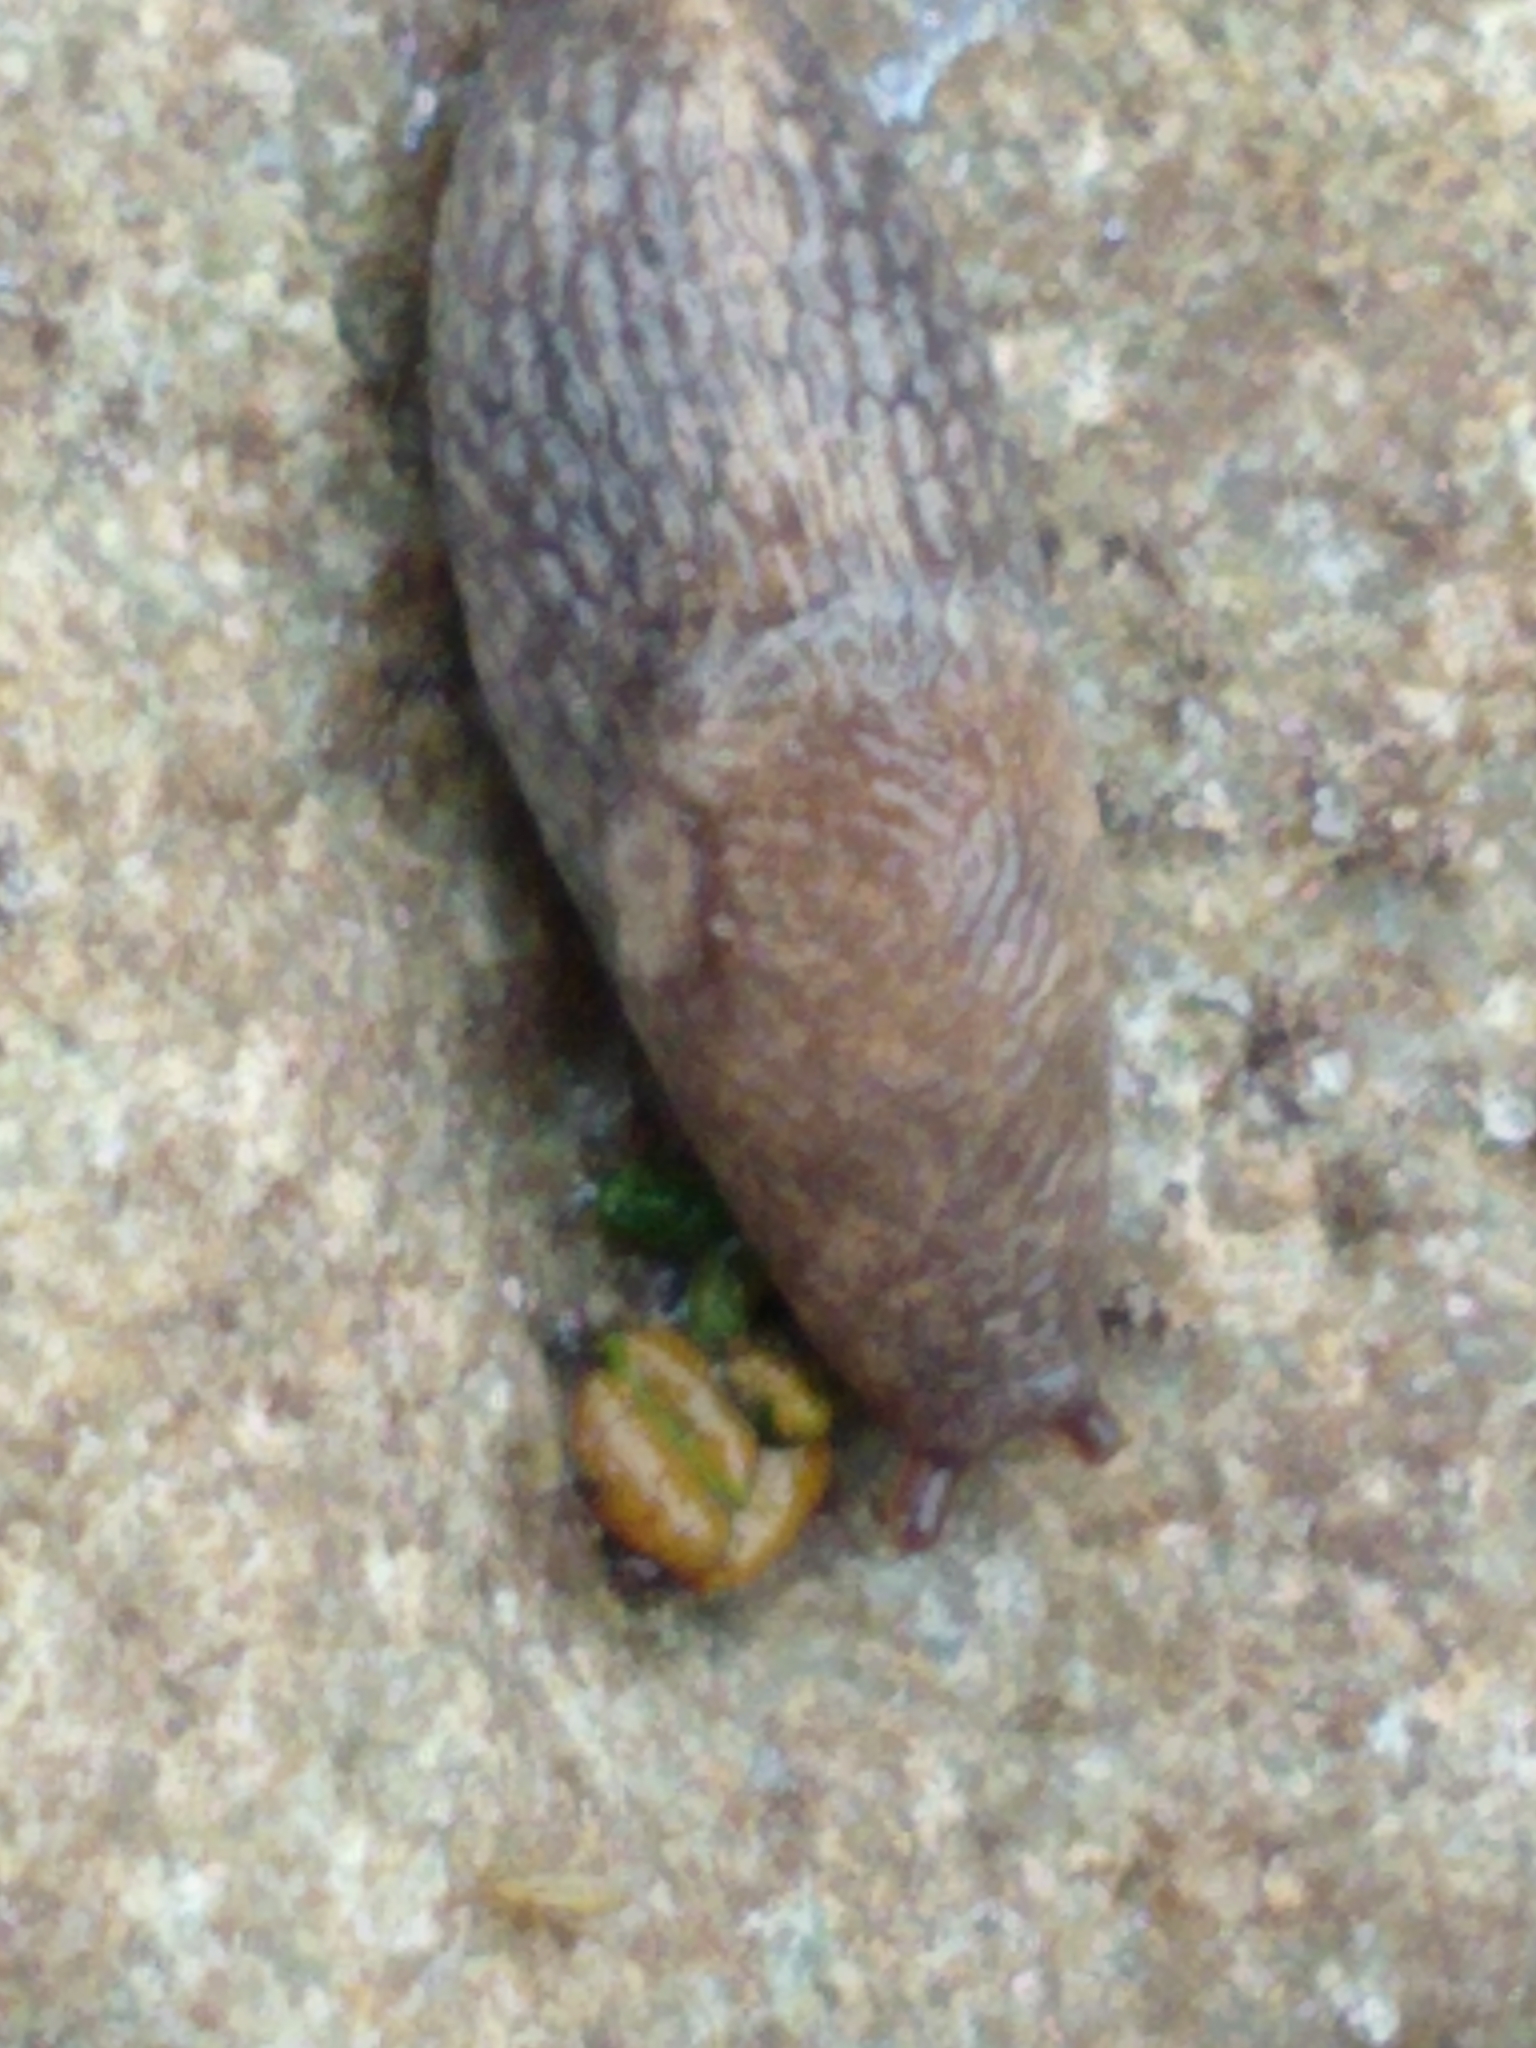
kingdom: Animalia
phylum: Mollusca
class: Gastropoda
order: Stylommatophora
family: Agriolimacidae
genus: Deroceras
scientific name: Deroceras reticulatum
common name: Gray field slug
